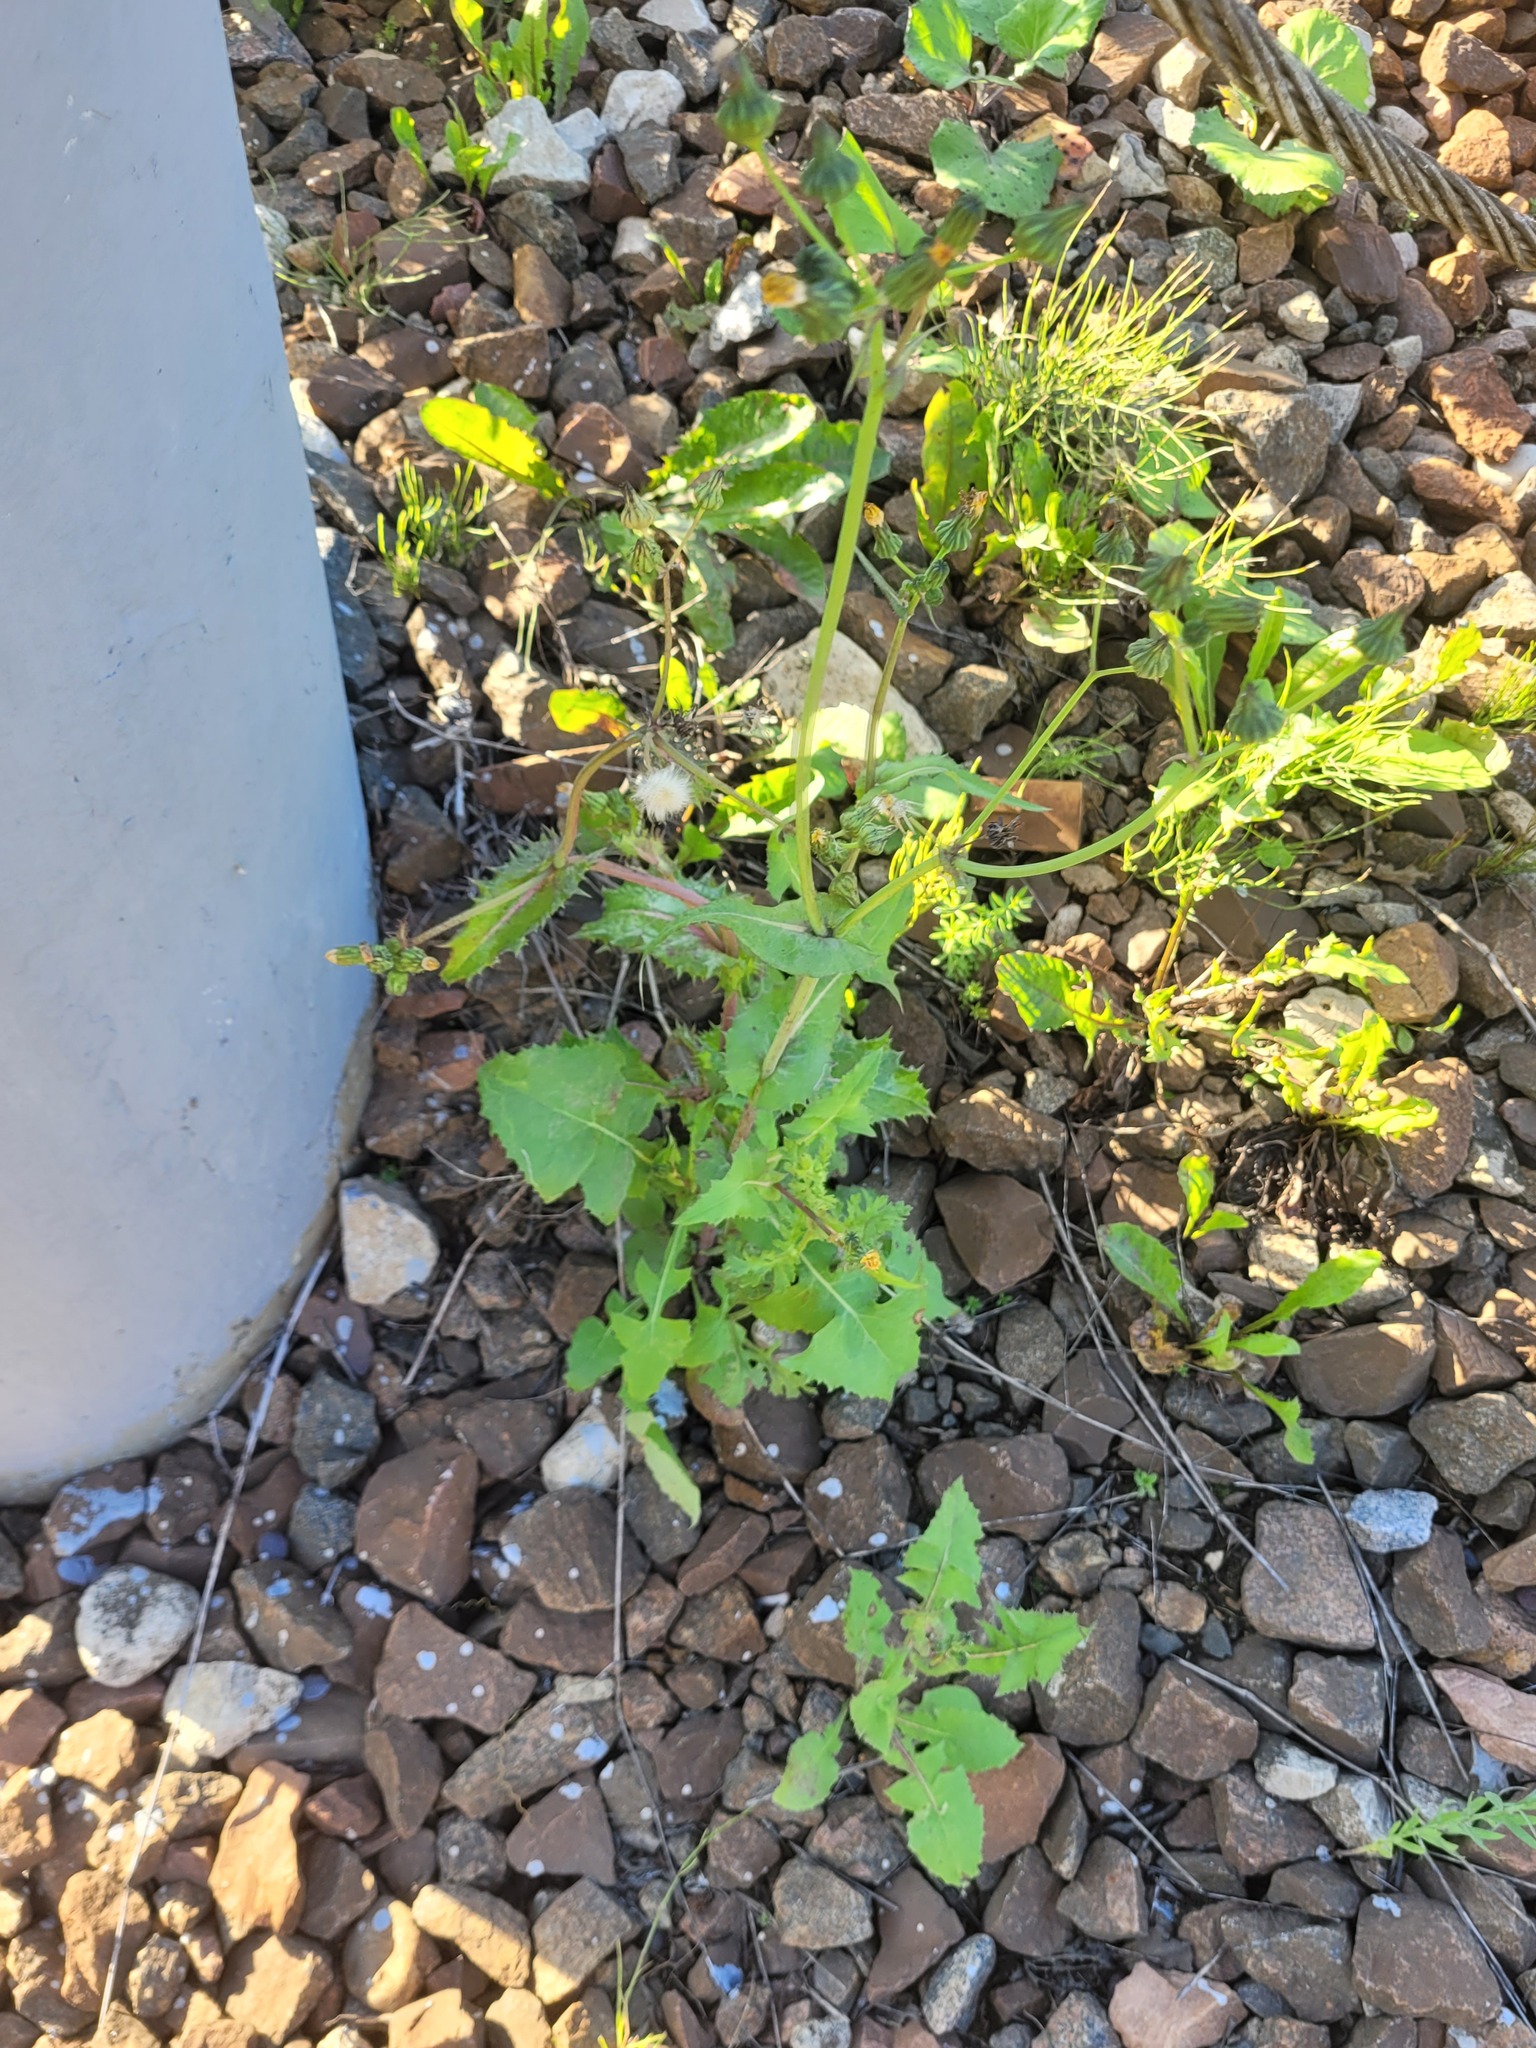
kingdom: Plantae
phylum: Tracheophyta
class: Magnoliopsida
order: Asterales
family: Asteraceae
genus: Sonchus
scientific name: Sonchus oleraceus
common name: Common sowthistle
